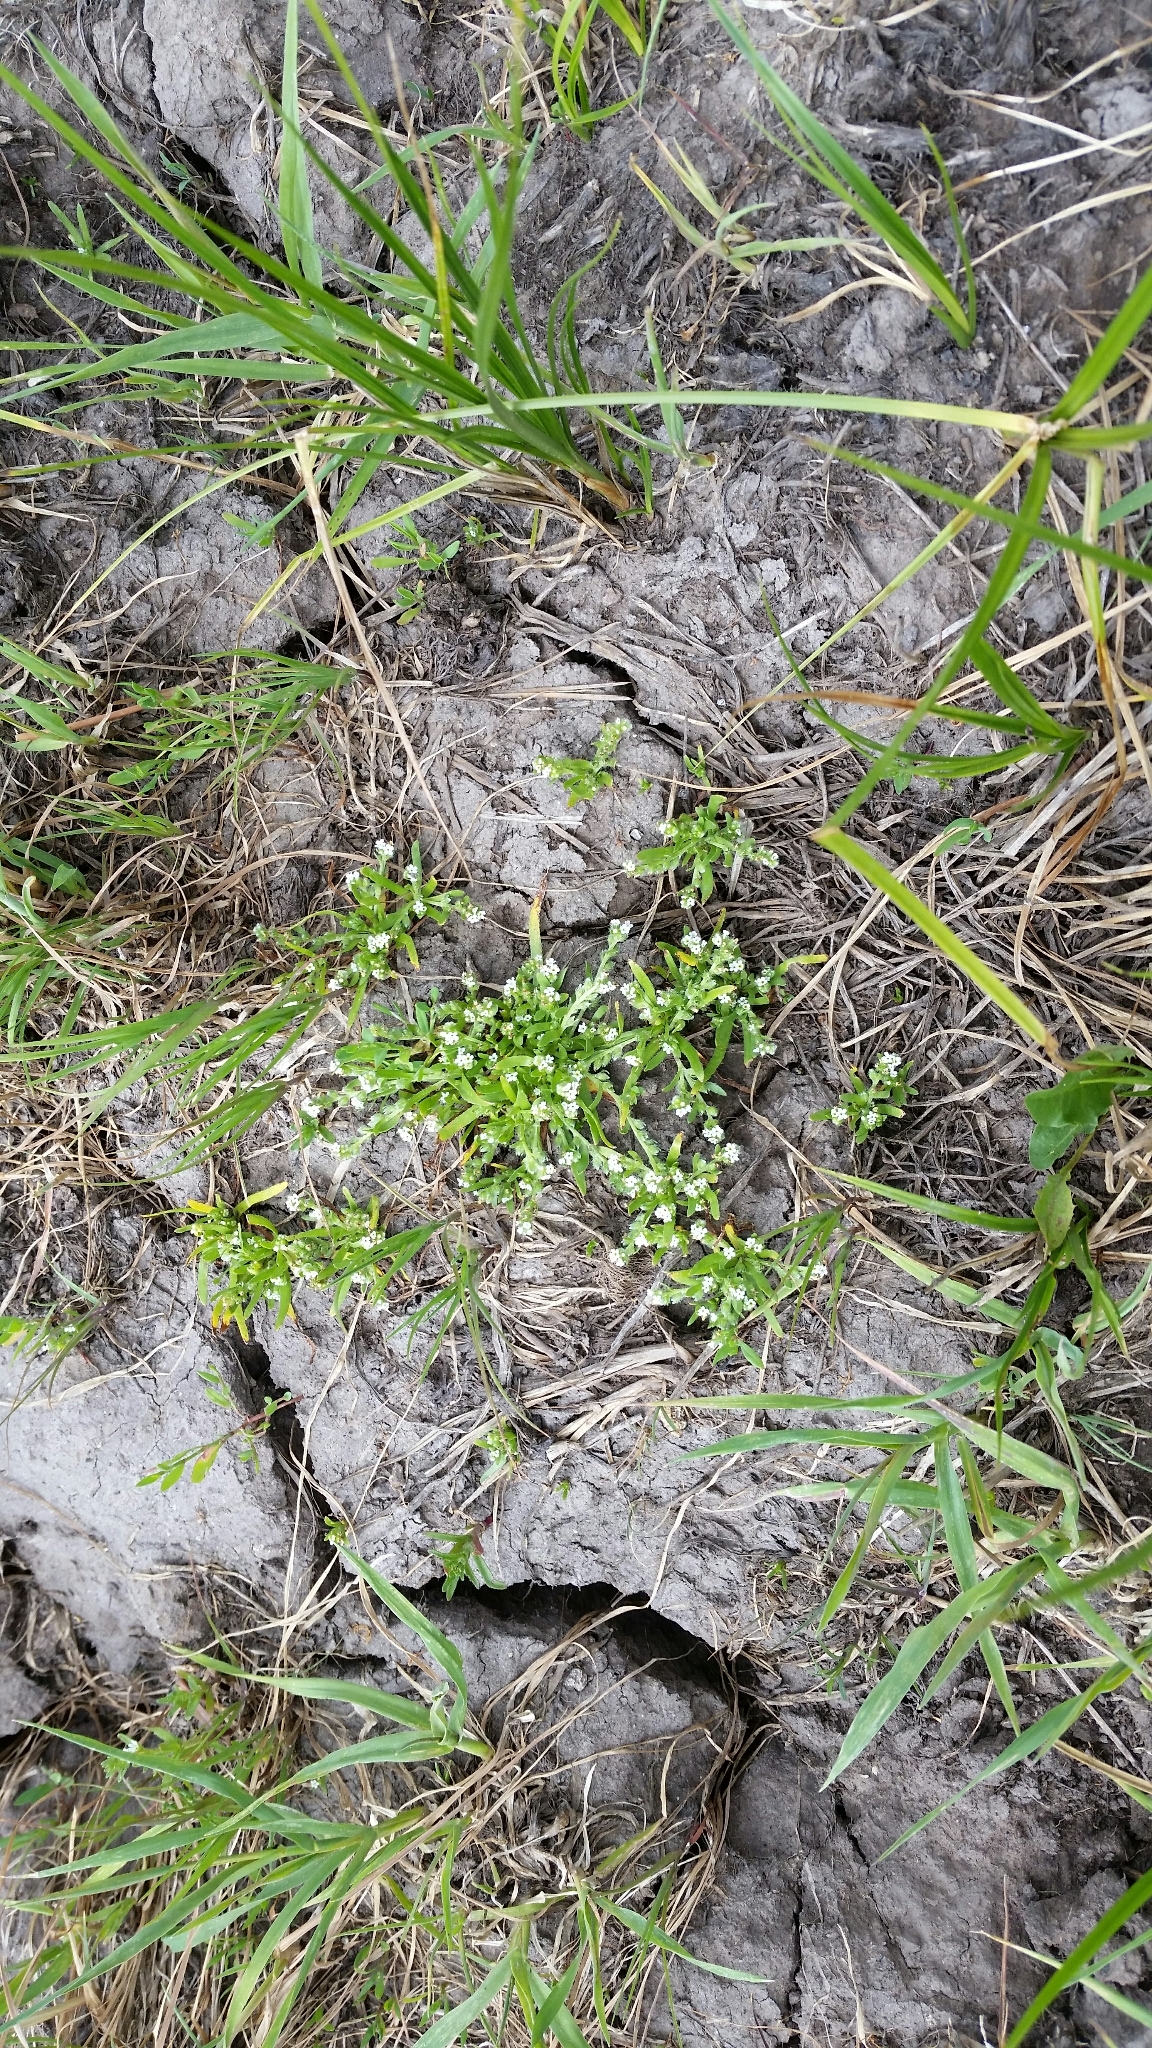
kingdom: Plantae
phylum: Tracheophyta
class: Magnoliopsida
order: Boraginales
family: Boraginaceae
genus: Plagiobothrys
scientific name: Plagiobothrys scouleri
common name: White forget-me-not
